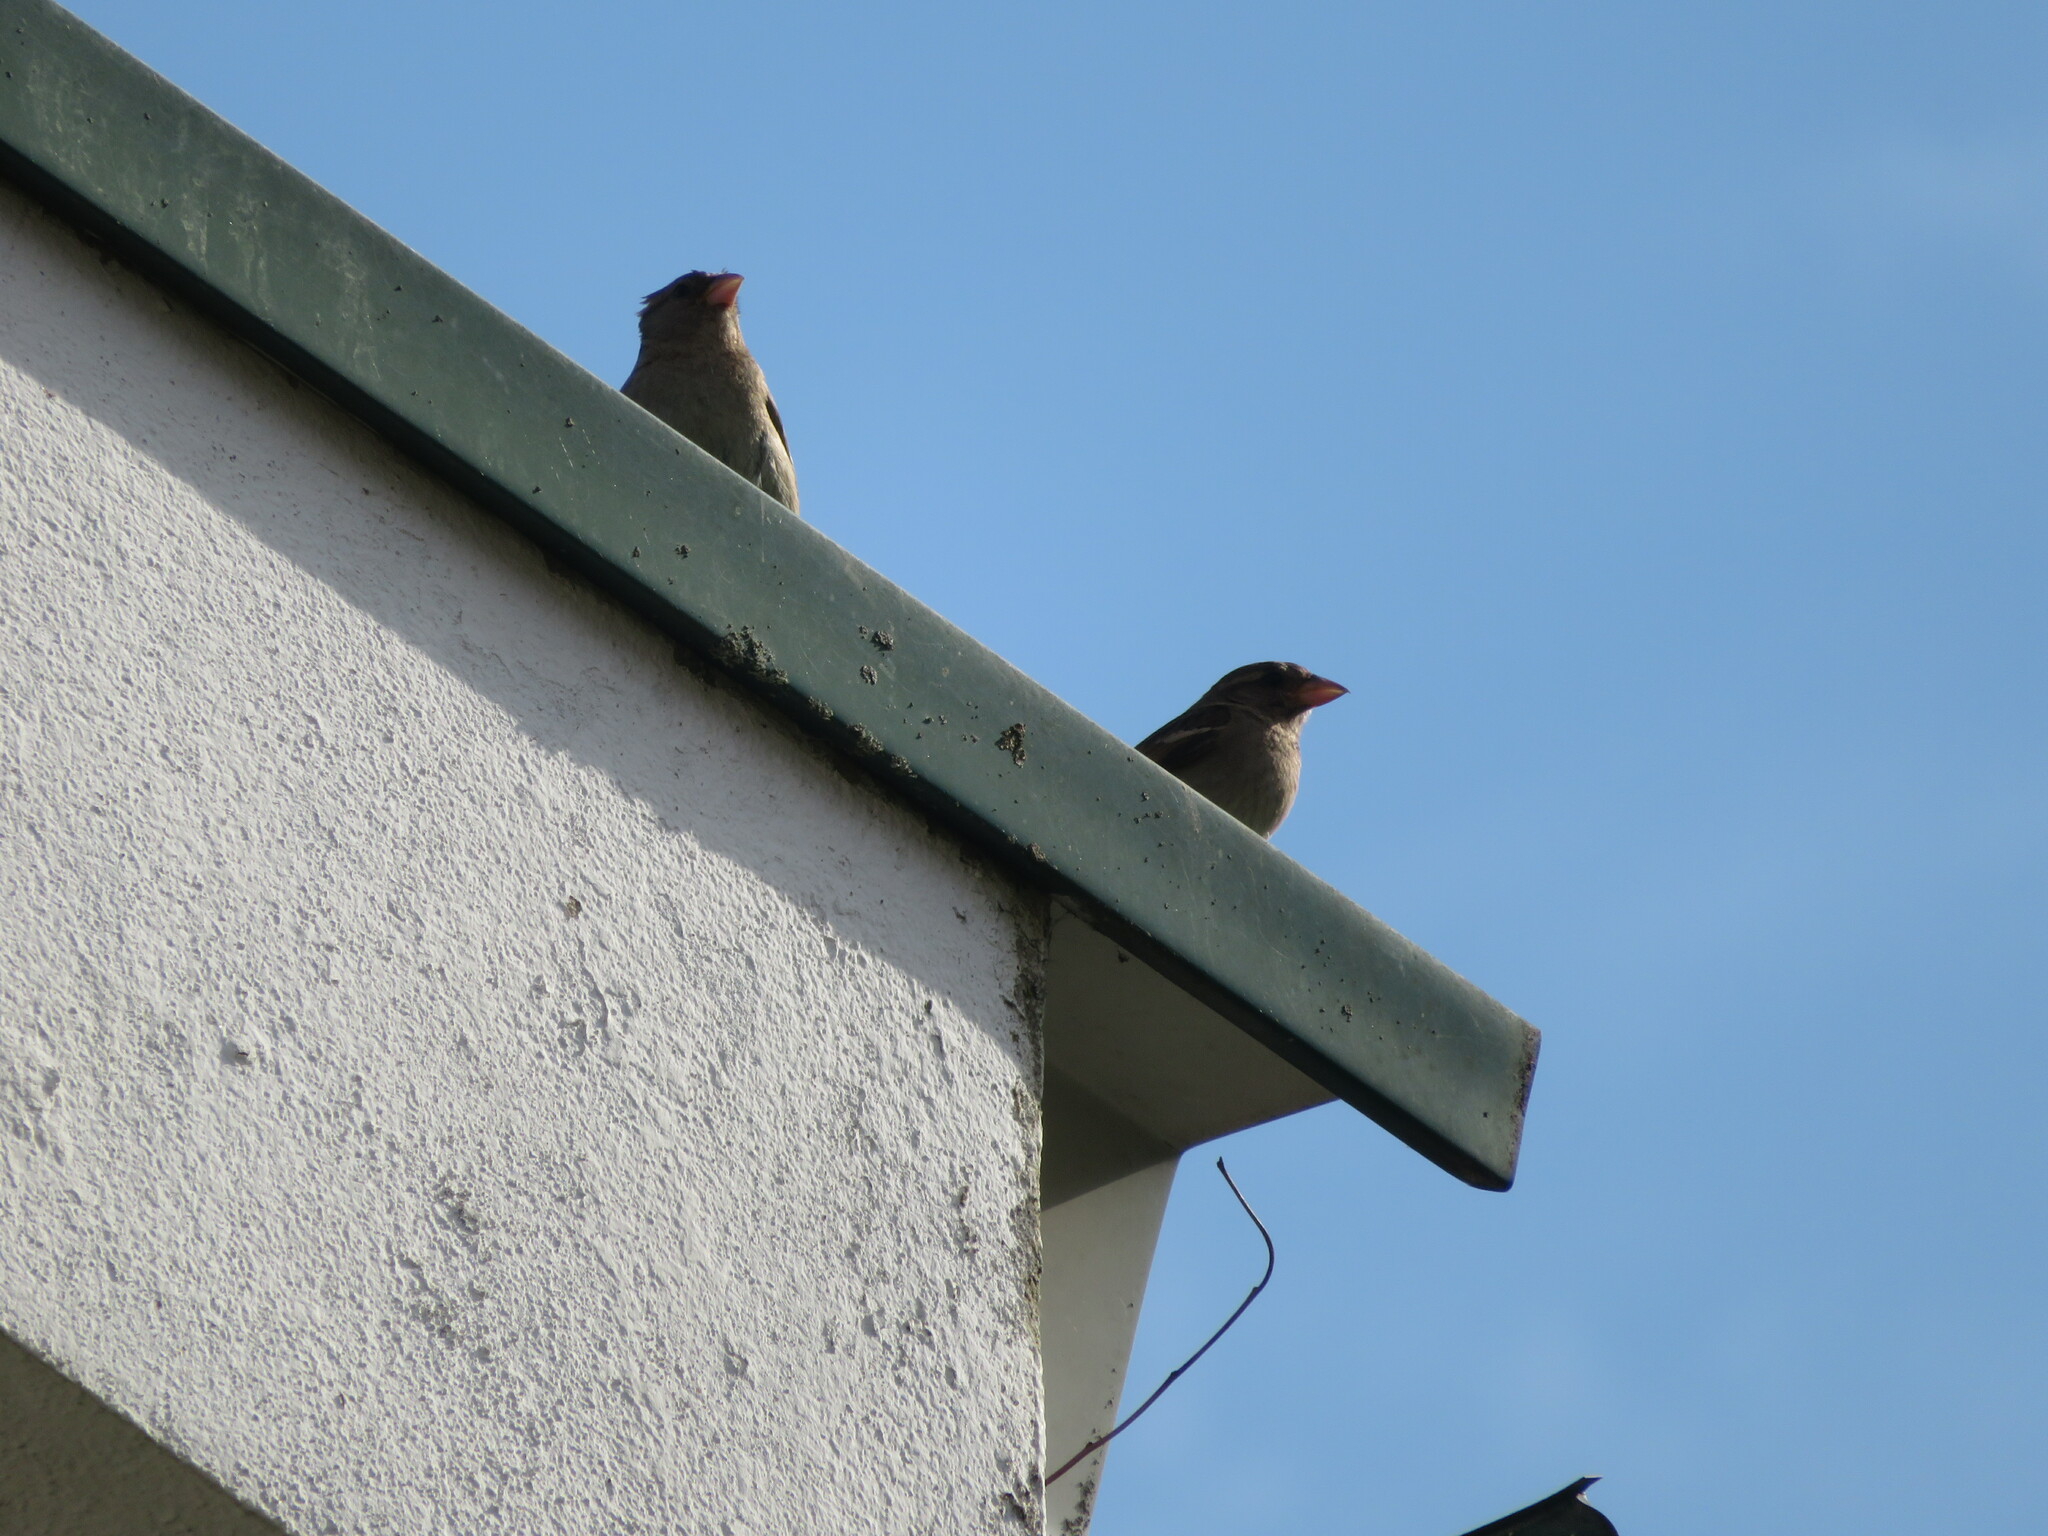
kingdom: Animalia
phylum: Chordata
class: Aves
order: Passeriformes
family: Passeridae
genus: Passer
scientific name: Passer domesticus
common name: House sparrow
